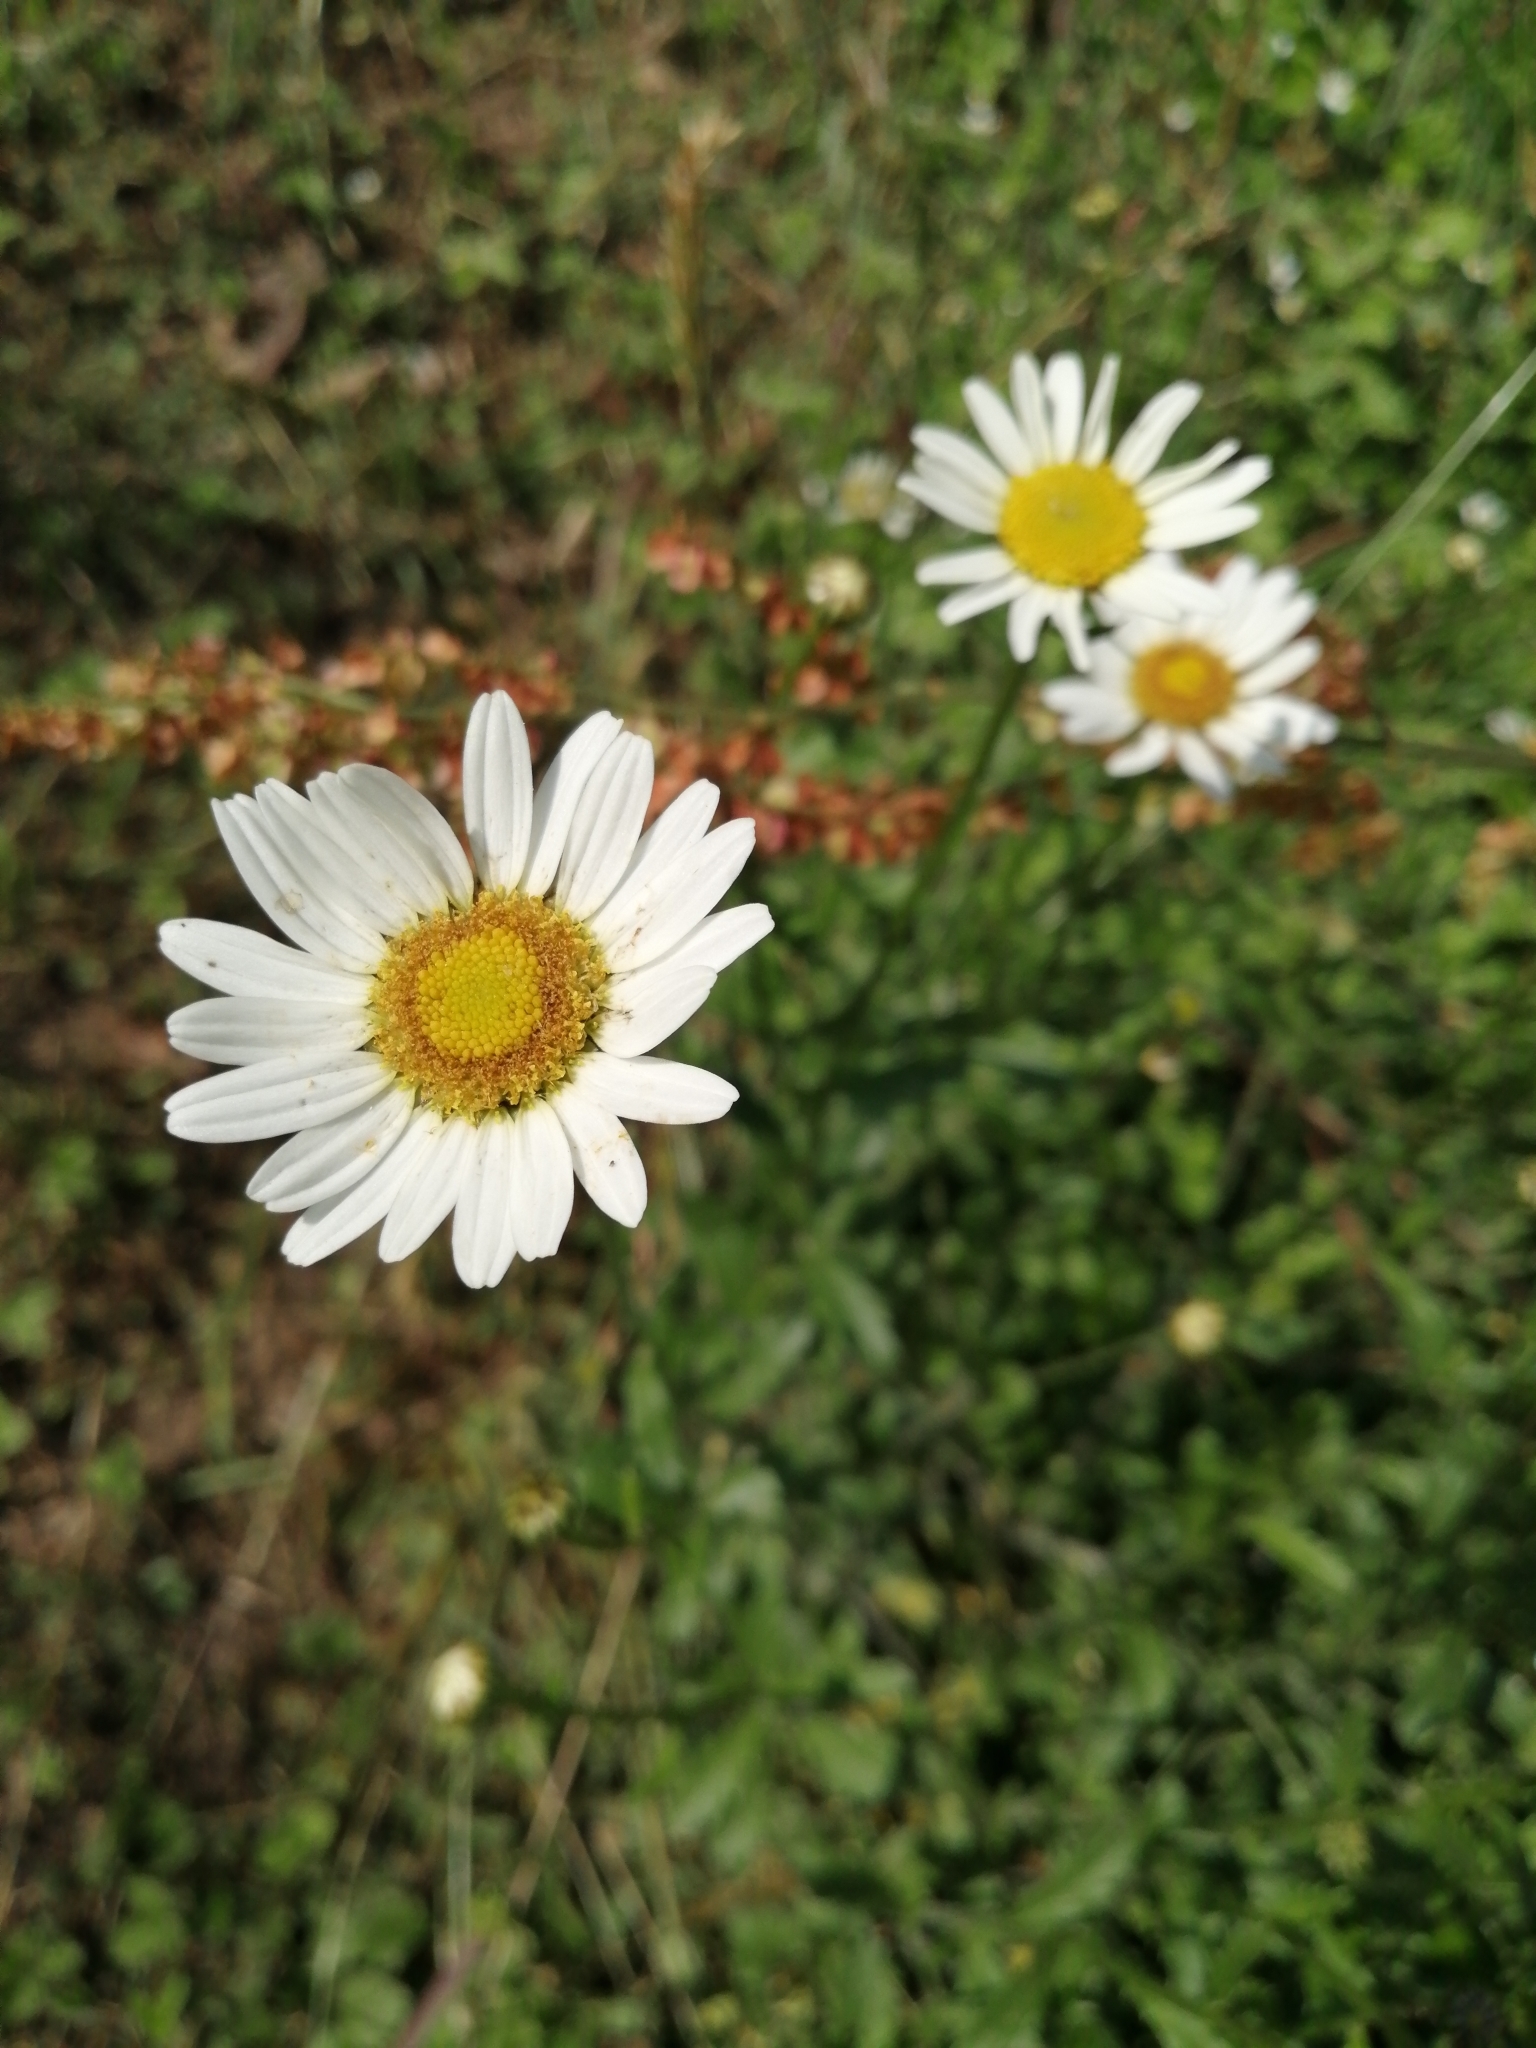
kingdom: Plantae
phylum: Tracheophyta
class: Magnoliopsida
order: Asterales
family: Asteraceae
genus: Leucanthemum
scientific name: Leucanthemum vulgare
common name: Oxeye daisy
